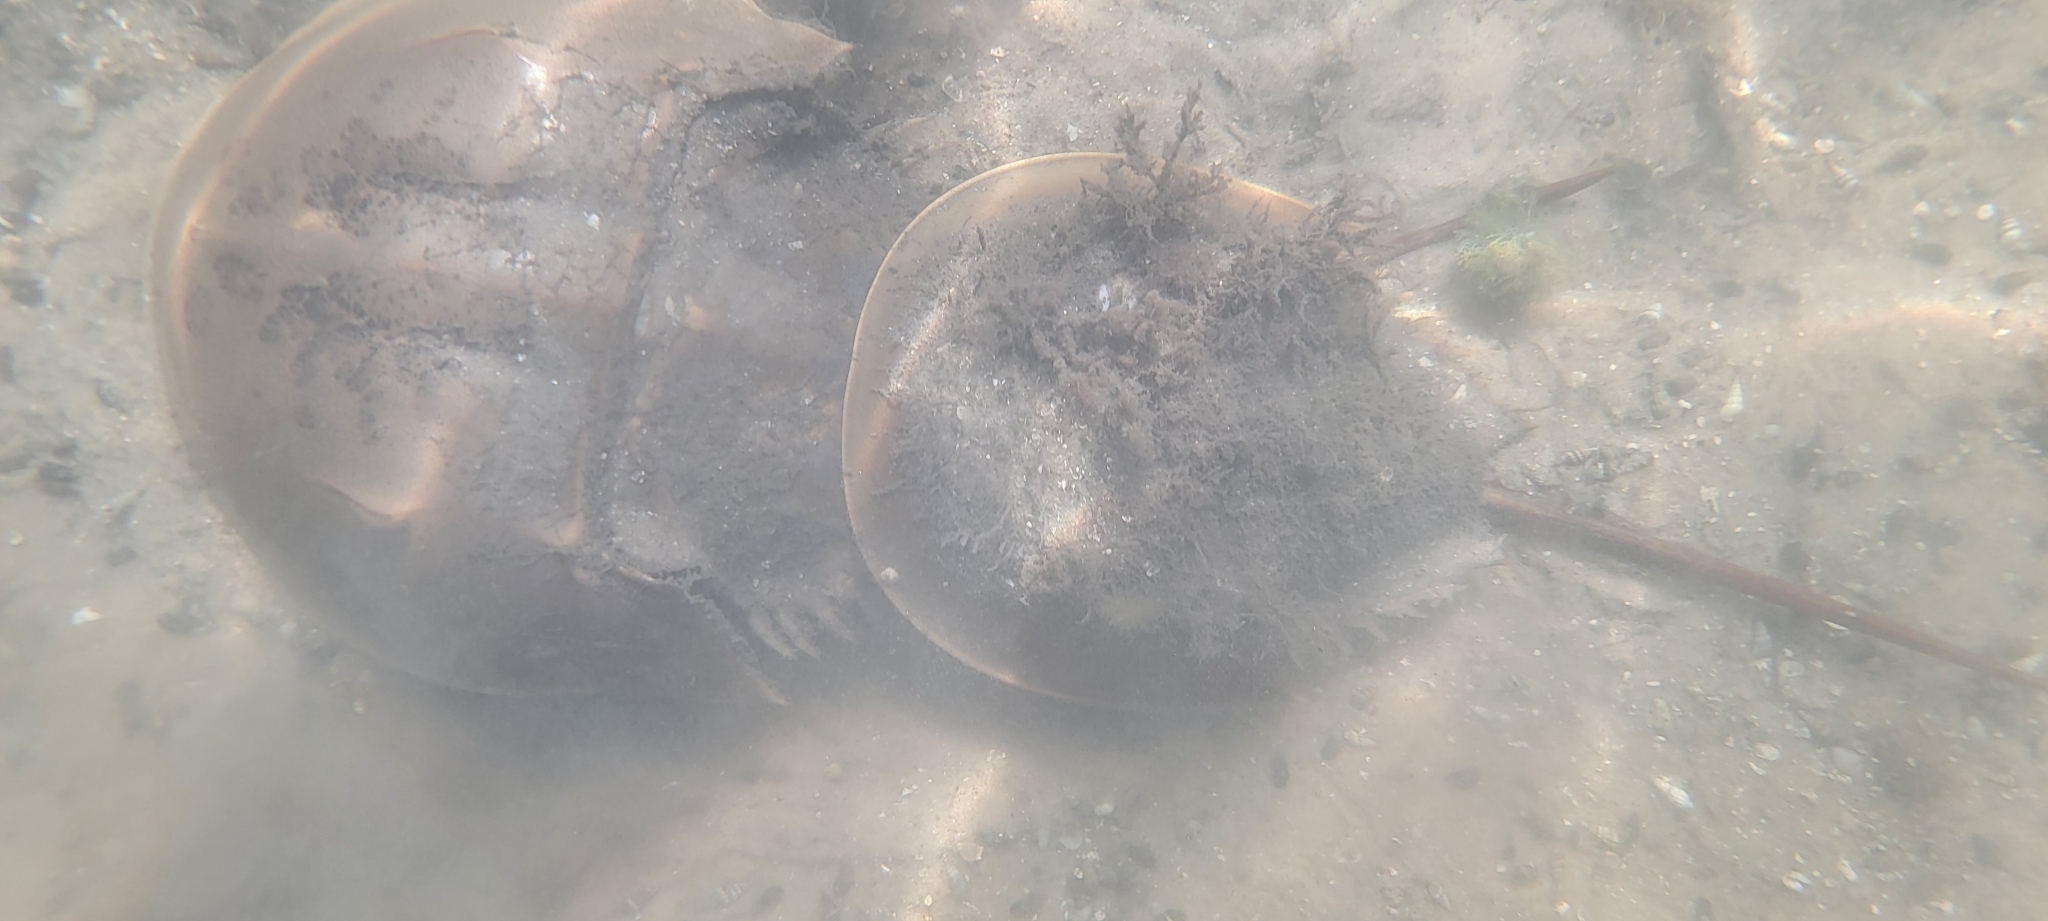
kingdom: Animalia
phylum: Arthropoda
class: Merostomata
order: Xiphosurida
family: Limulidae
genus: Limulus
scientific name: Limulus polyphemus
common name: Horseshoe crab
